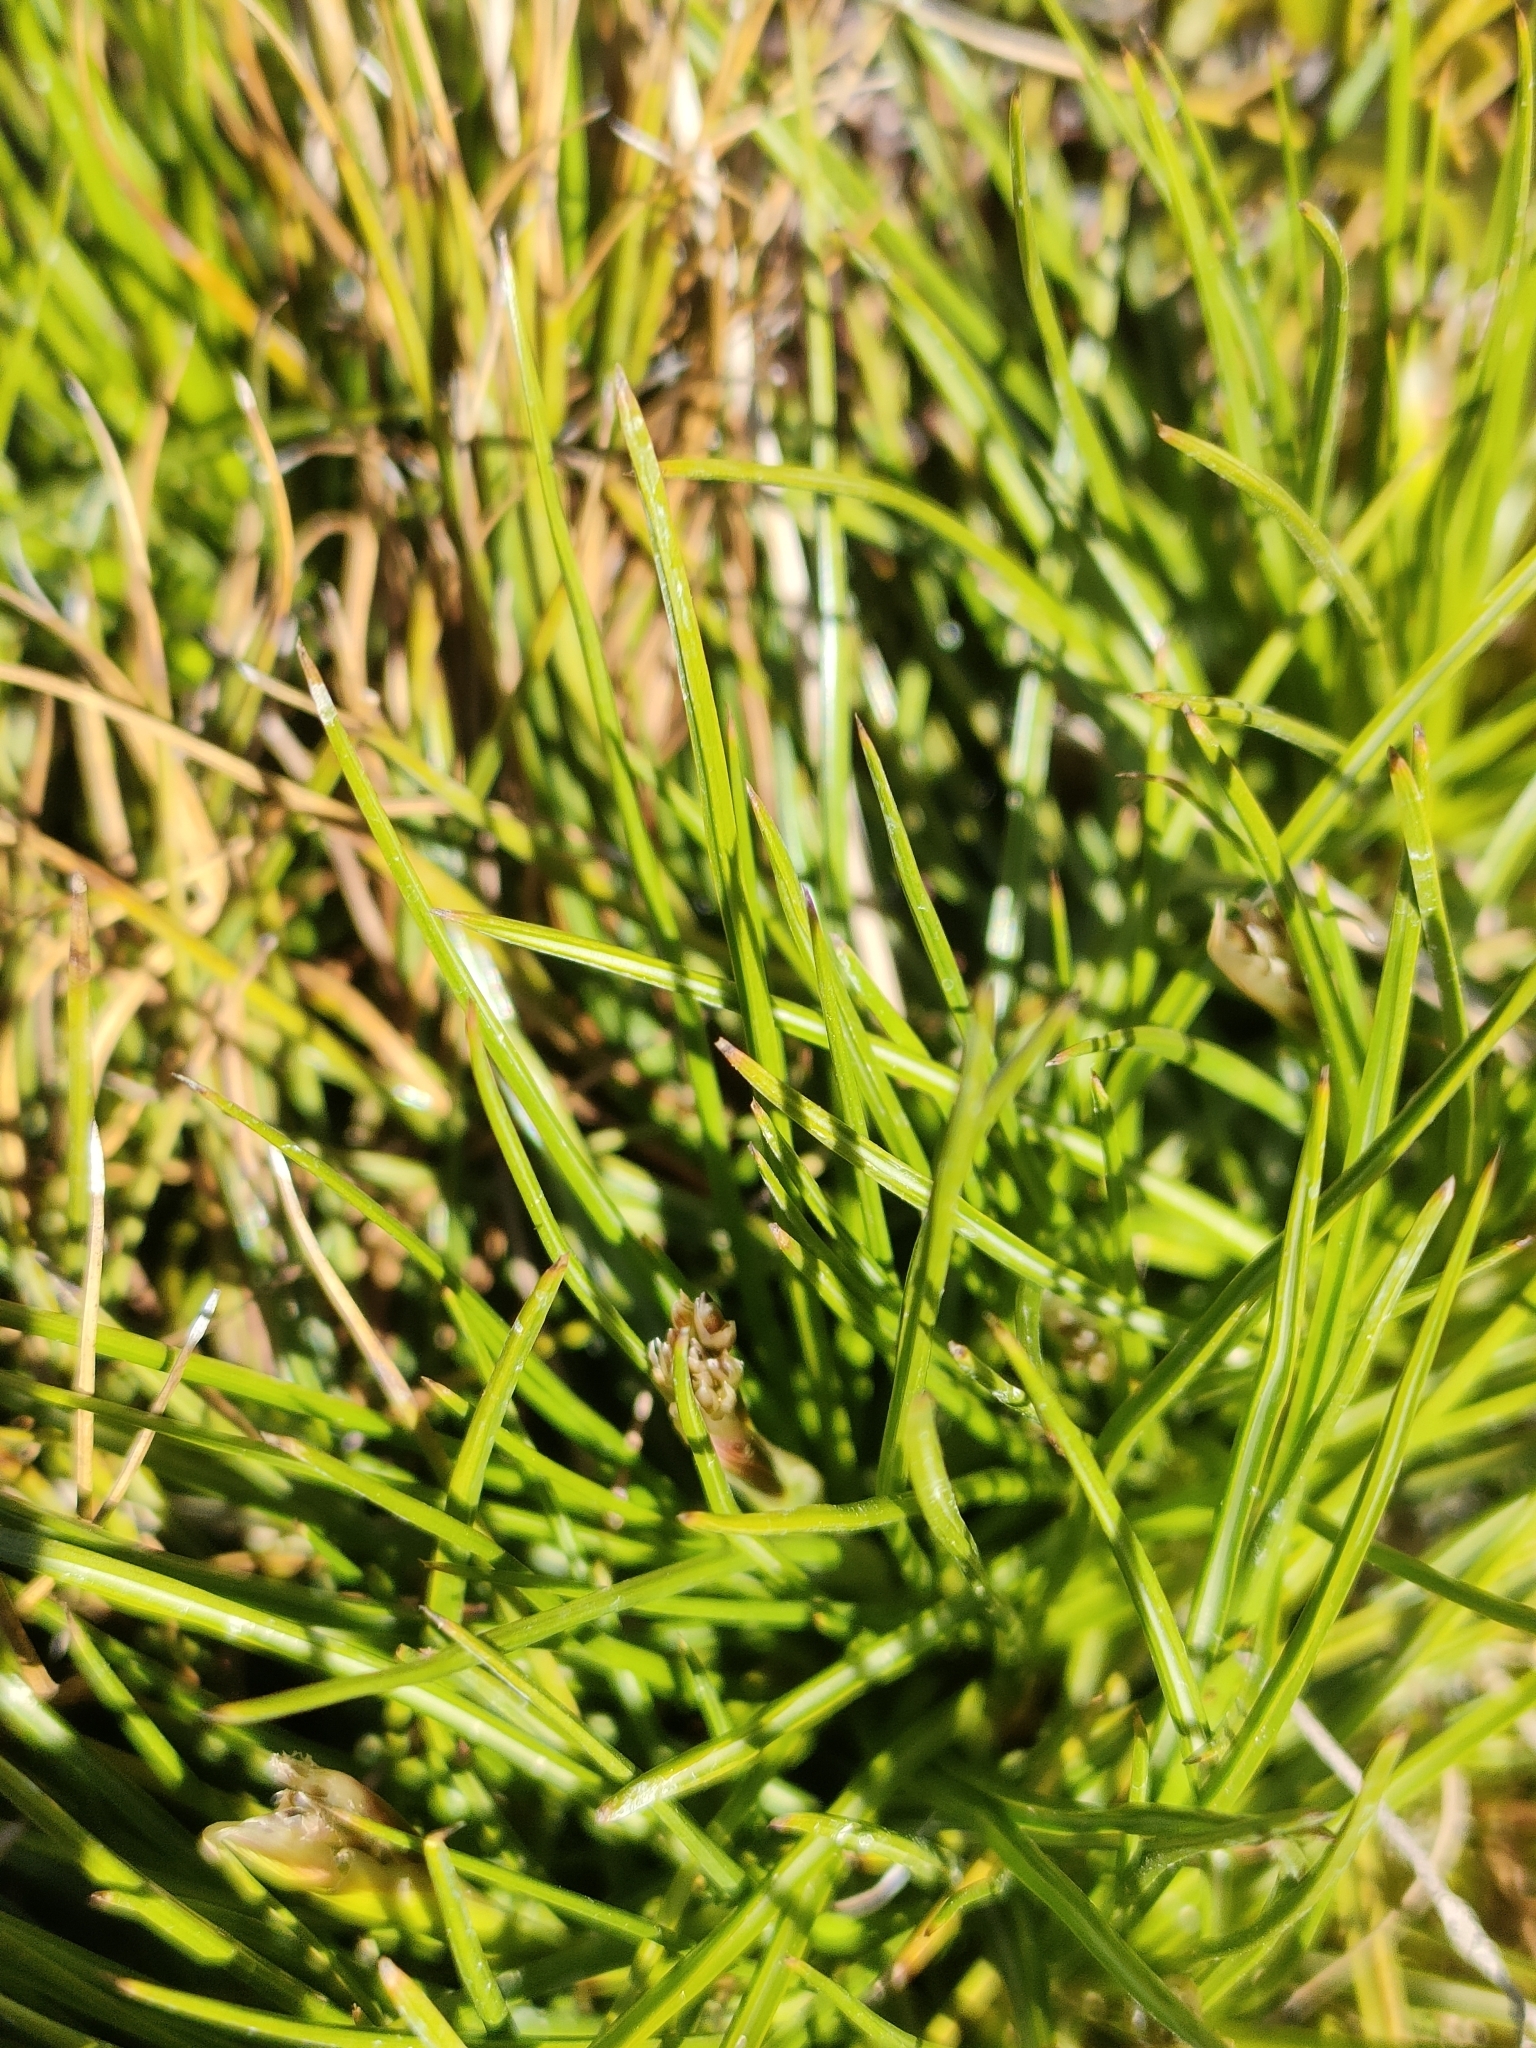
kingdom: Plantae
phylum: Tracheophyta
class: Liliopsida
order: Poales
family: Juncaceae
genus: Juncus
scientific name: Juncus squarrosus
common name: Heath rush
